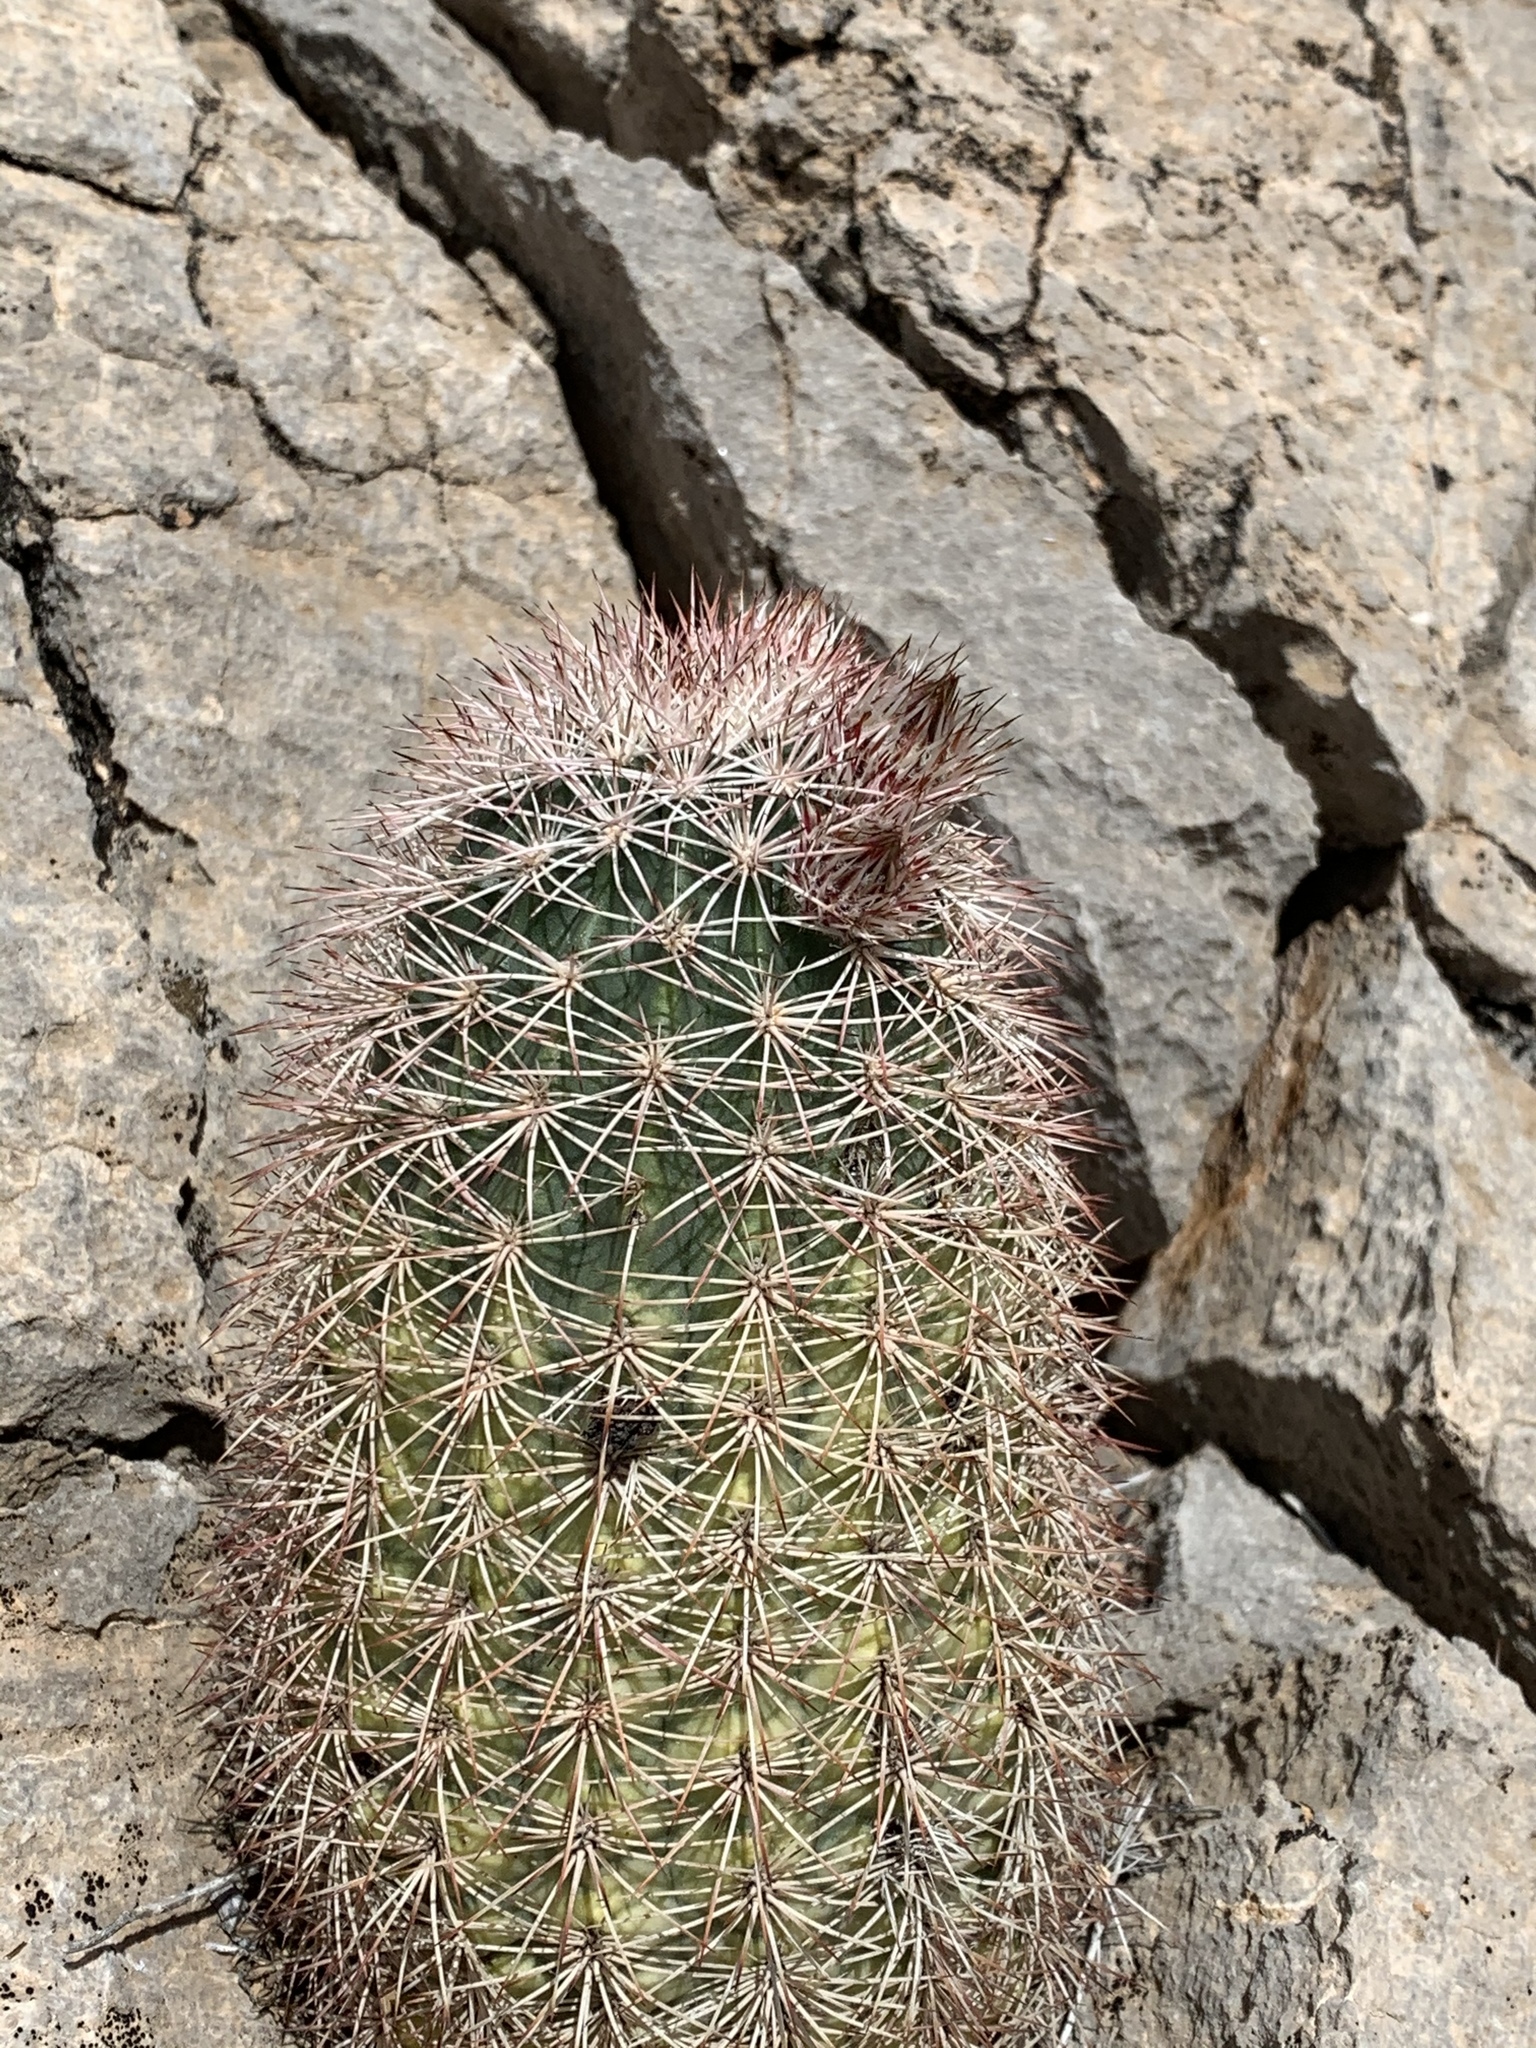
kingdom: Plantae
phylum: Tracheophyta
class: Magnoliopsida
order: Caryophyllales
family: Cactaceae
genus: Echinocereus
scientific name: Echinocereus dasyacanthus
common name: Spiny hedgehog cactus
